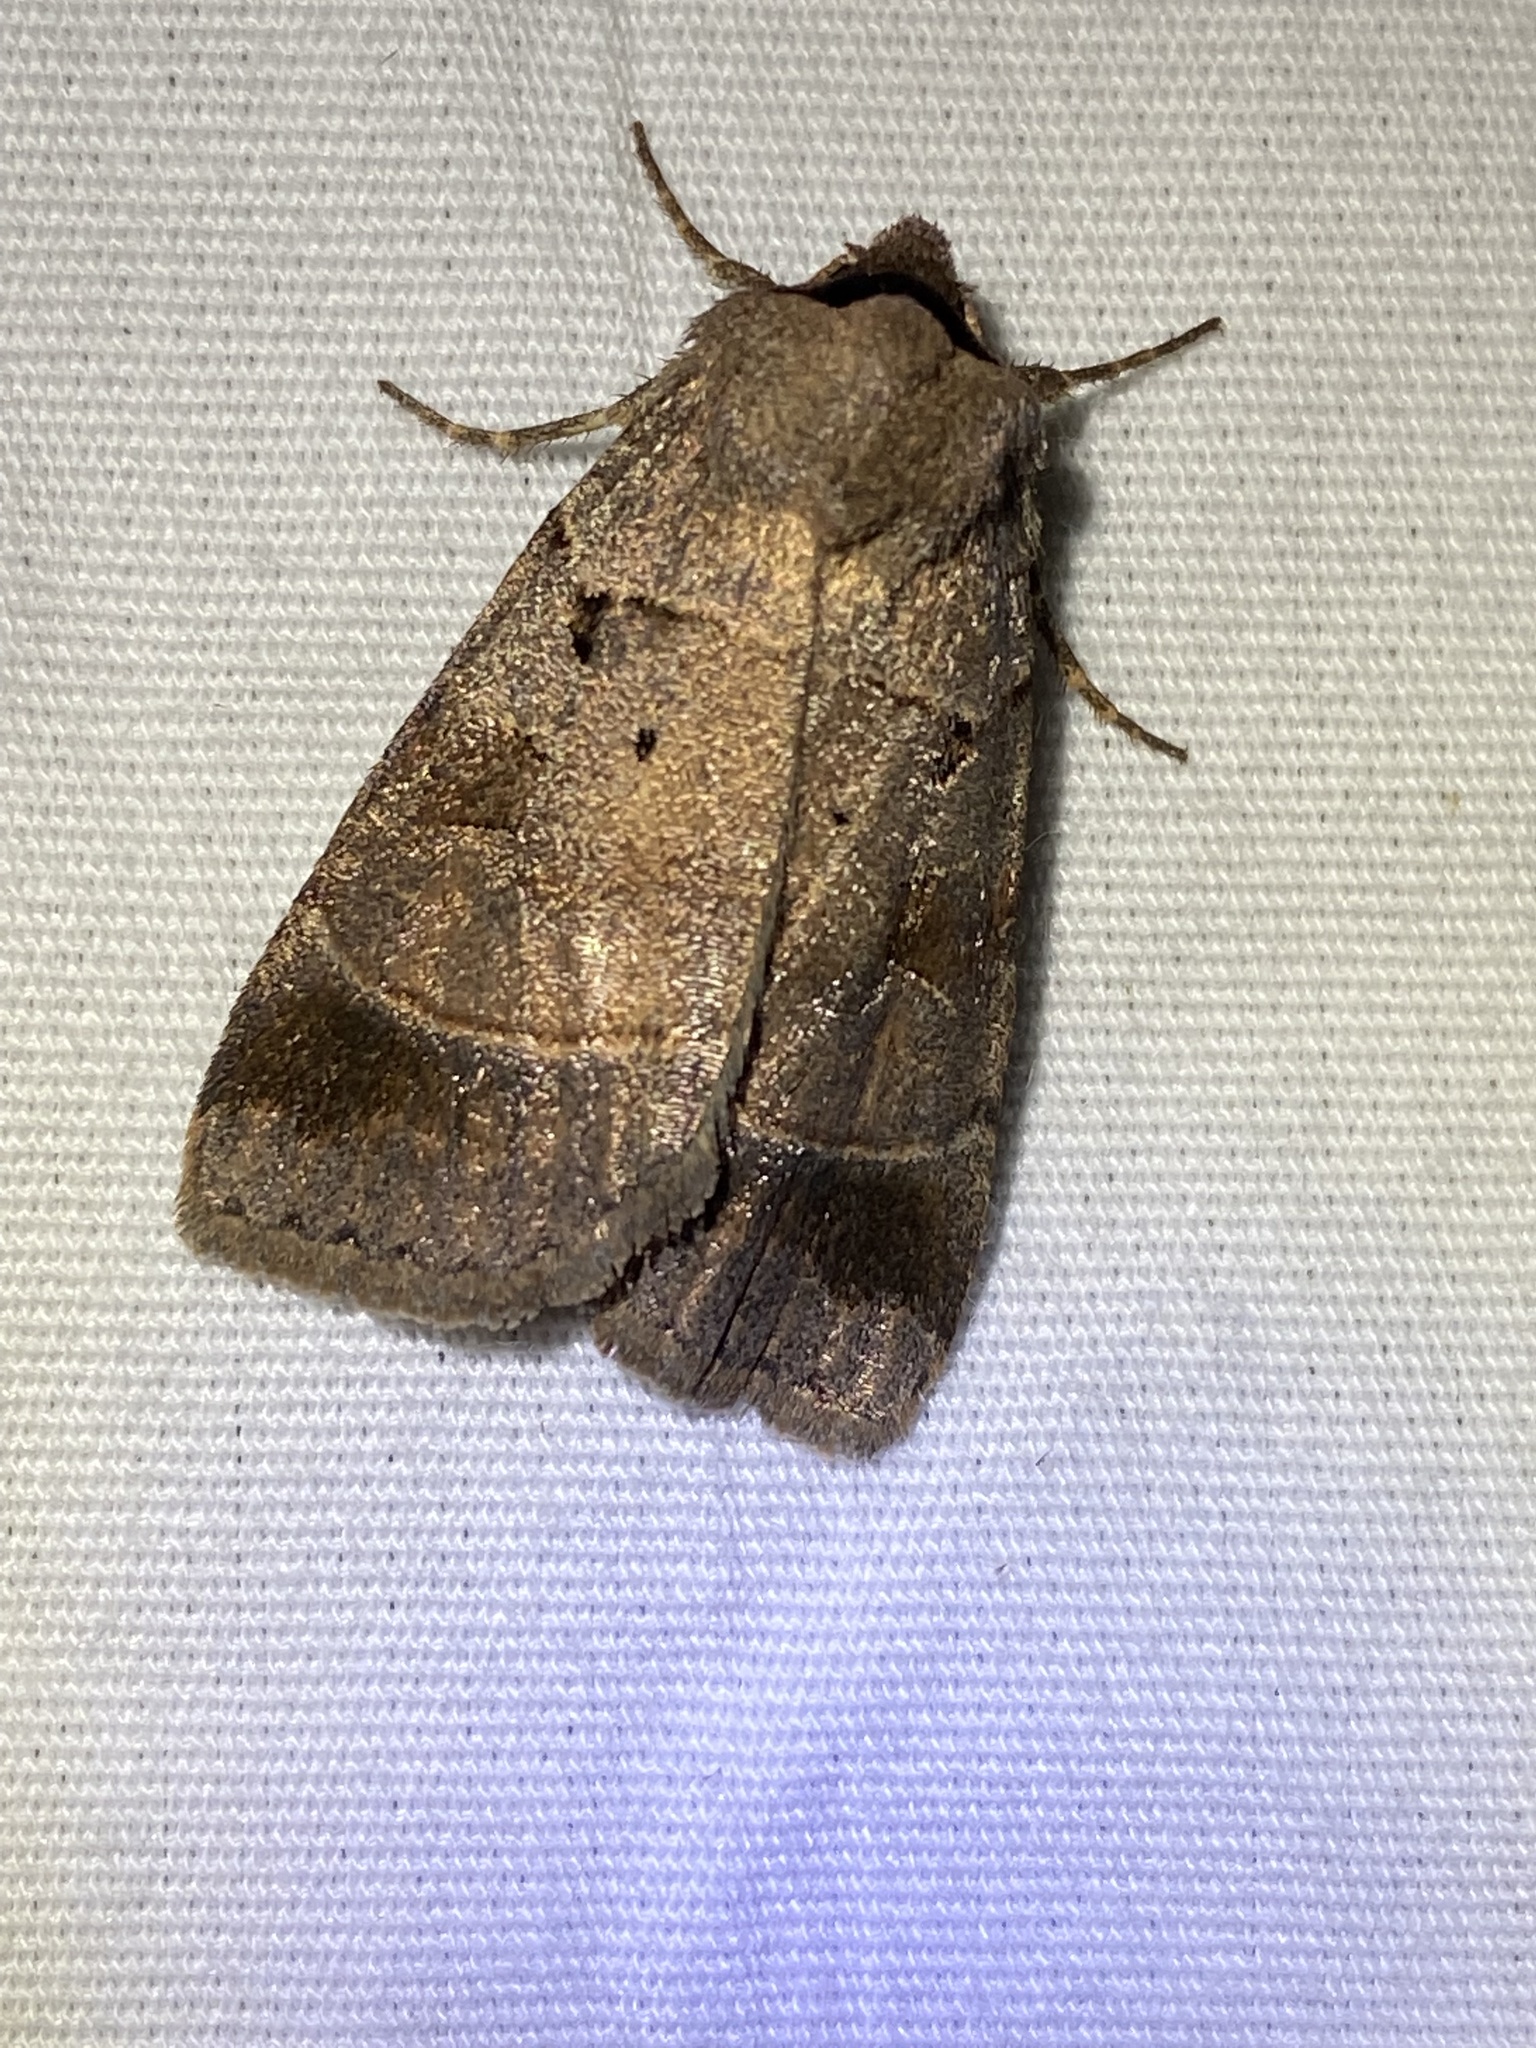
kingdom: Animalia
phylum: Arthropoda
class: Insecta
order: Lepidoptera
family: Noctuidae
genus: Agnorisma
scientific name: Agnorisma badinodis
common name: Pale-banded dart
